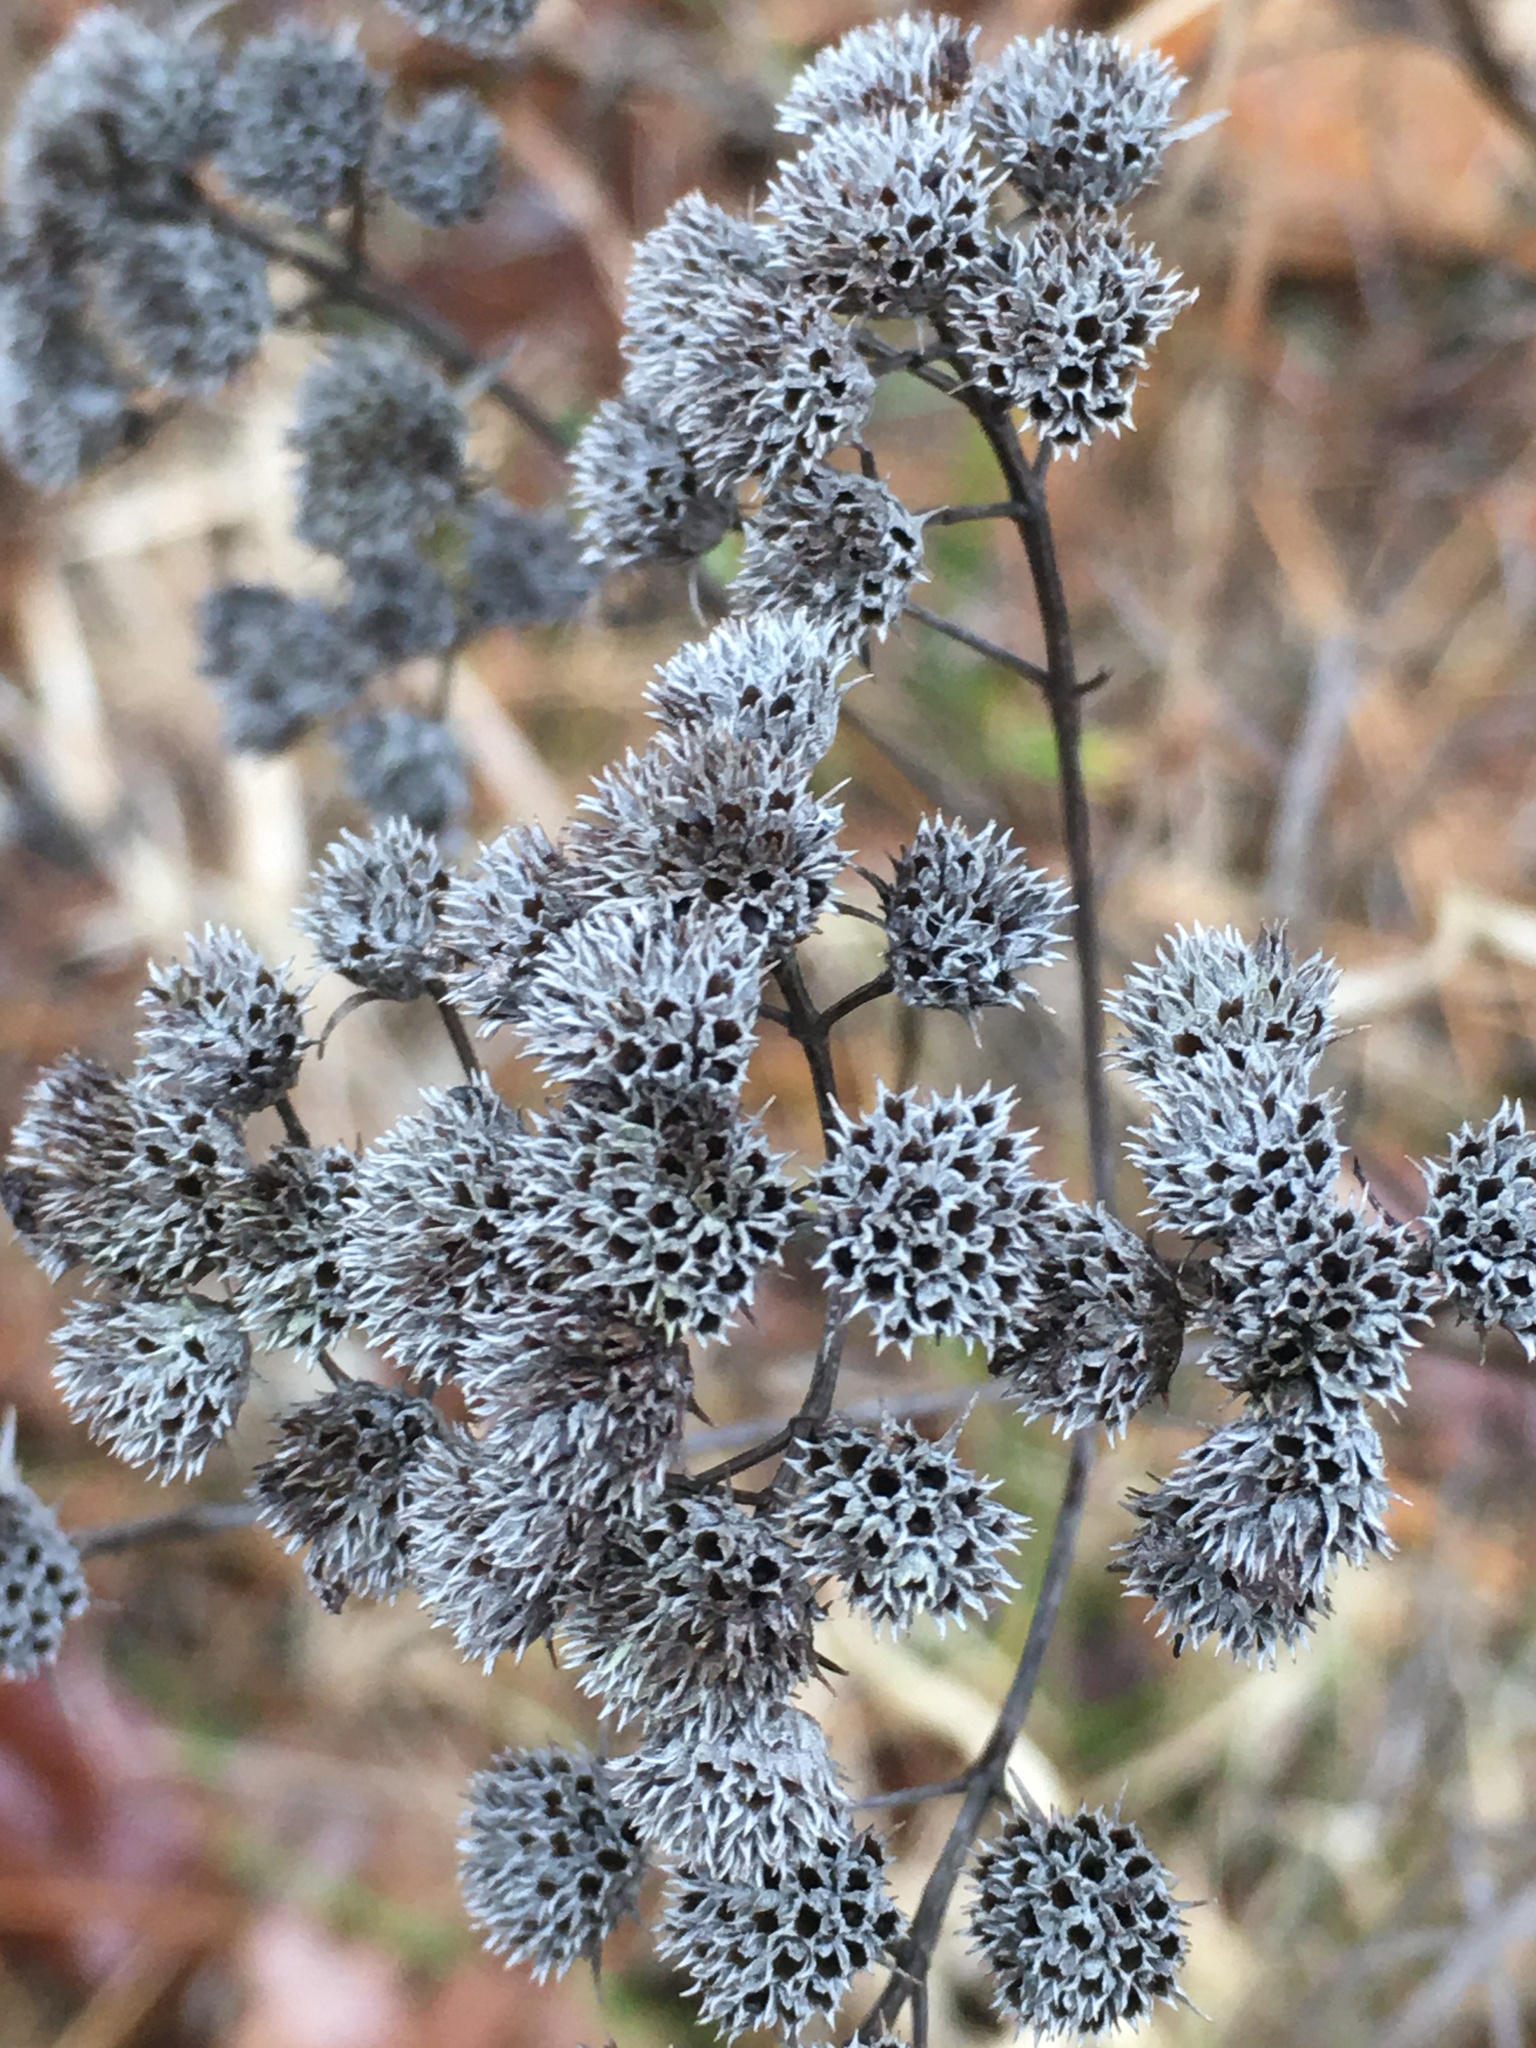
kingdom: Plantae
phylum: Tracheophyta
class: Magnoliopsida
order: Lamiales
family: Lamiaceae
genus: Pycnanthemum
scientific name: Pycnanthemum tenuifolium
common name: Narrow-leaf mountain-mint
